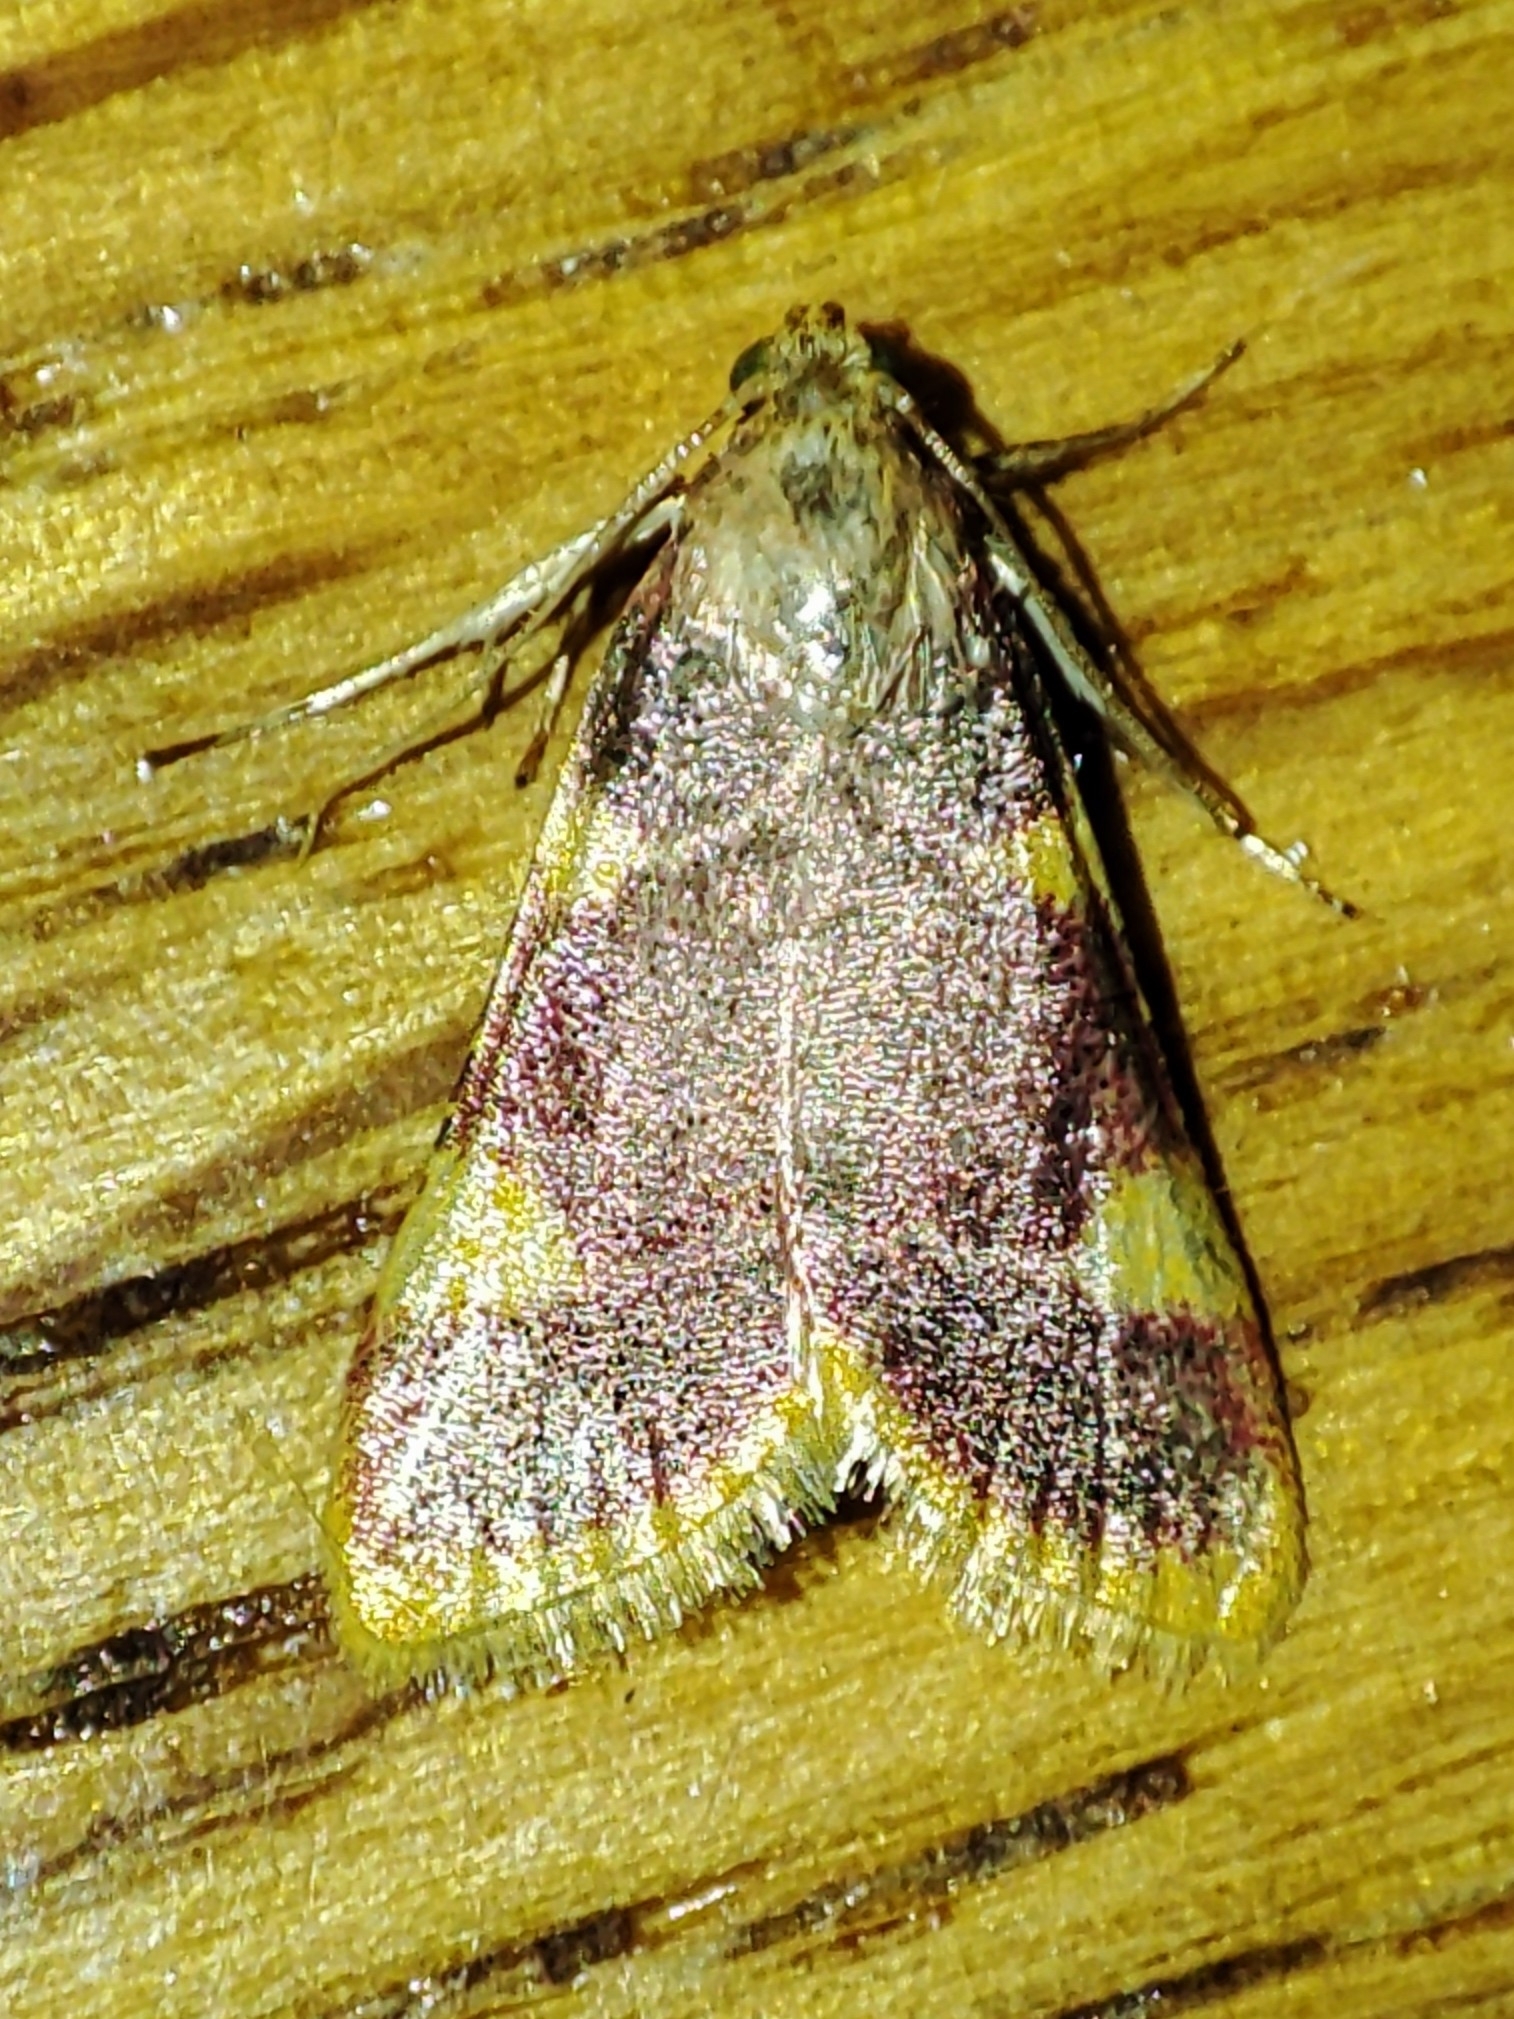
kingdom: Animalia
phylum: Arthropoda
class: Insecta
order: Lepidoptera
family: Pyralidae
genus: Hypsopygia
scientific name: Hypsopygia costalis
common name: Gold triangle
